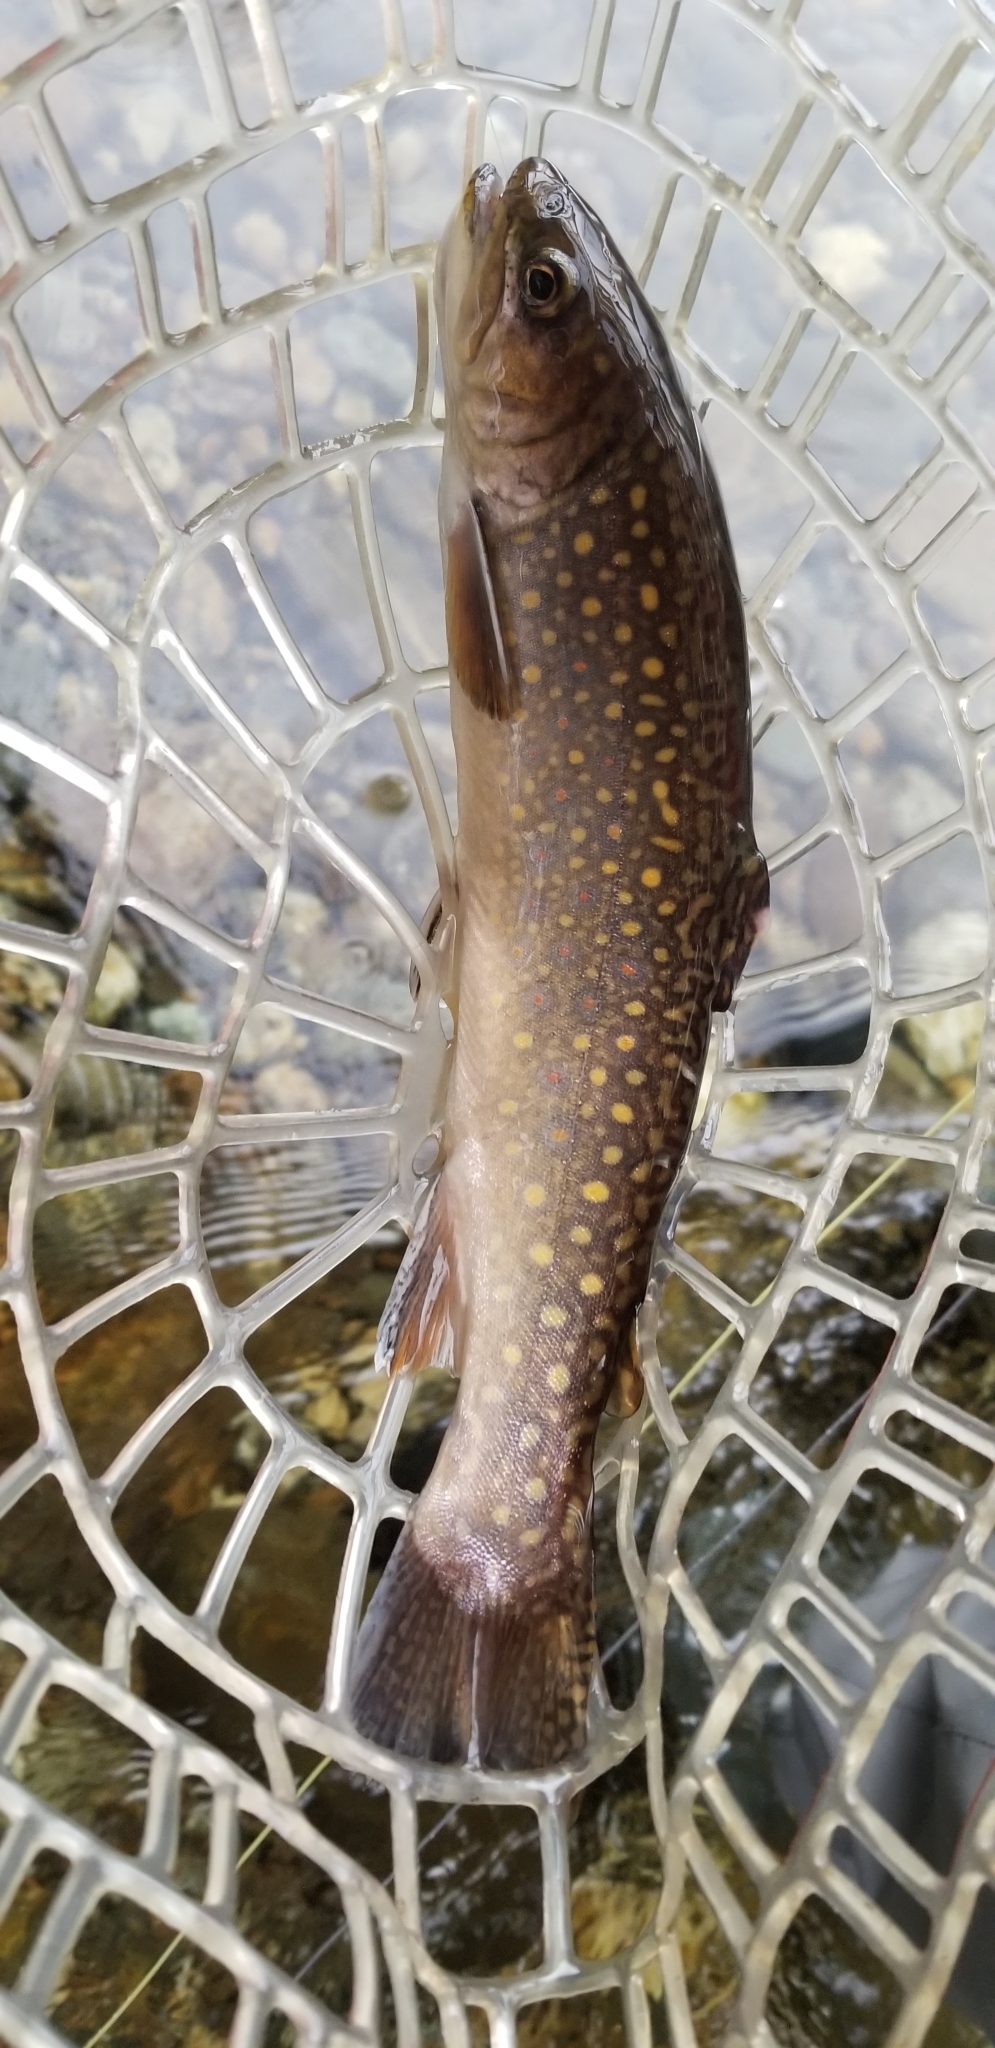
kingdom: Animalia
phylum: Chordata
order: Salmoniformes
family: Salmonidae
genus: Salvelinus
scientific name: Salvelinus fontinalis
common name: Brook trout
